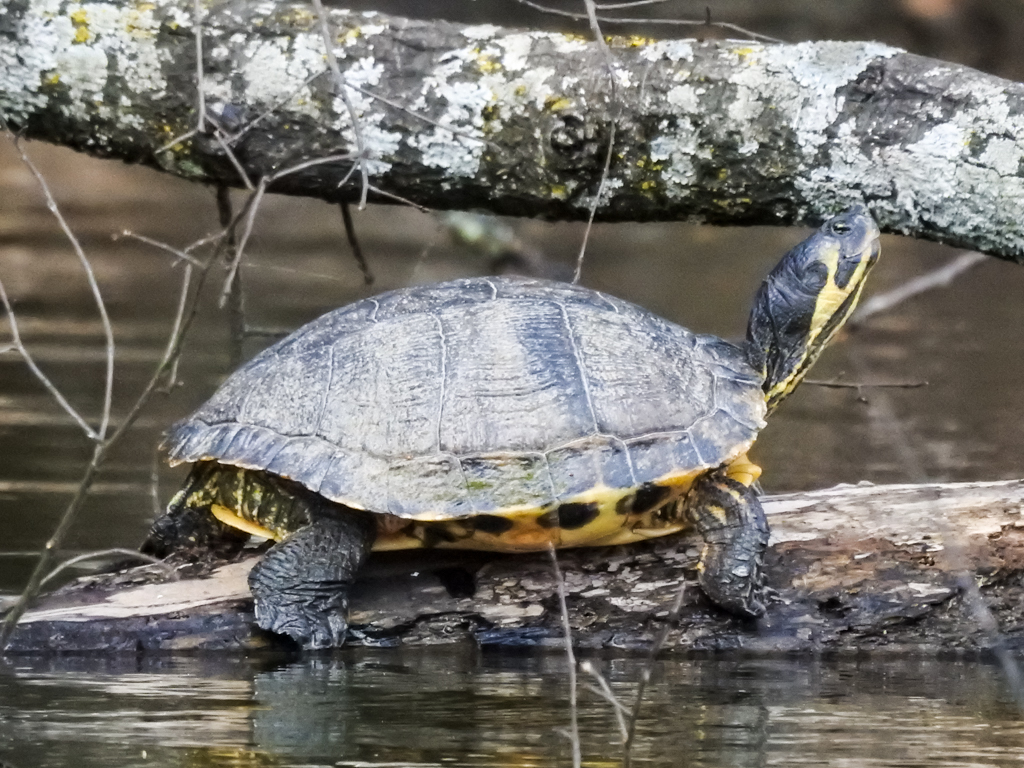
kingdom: Animalia
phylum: Chordata
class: Testudines
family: Emydidae
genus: Trachemys
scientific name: Trachemys scripta
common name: Slider
